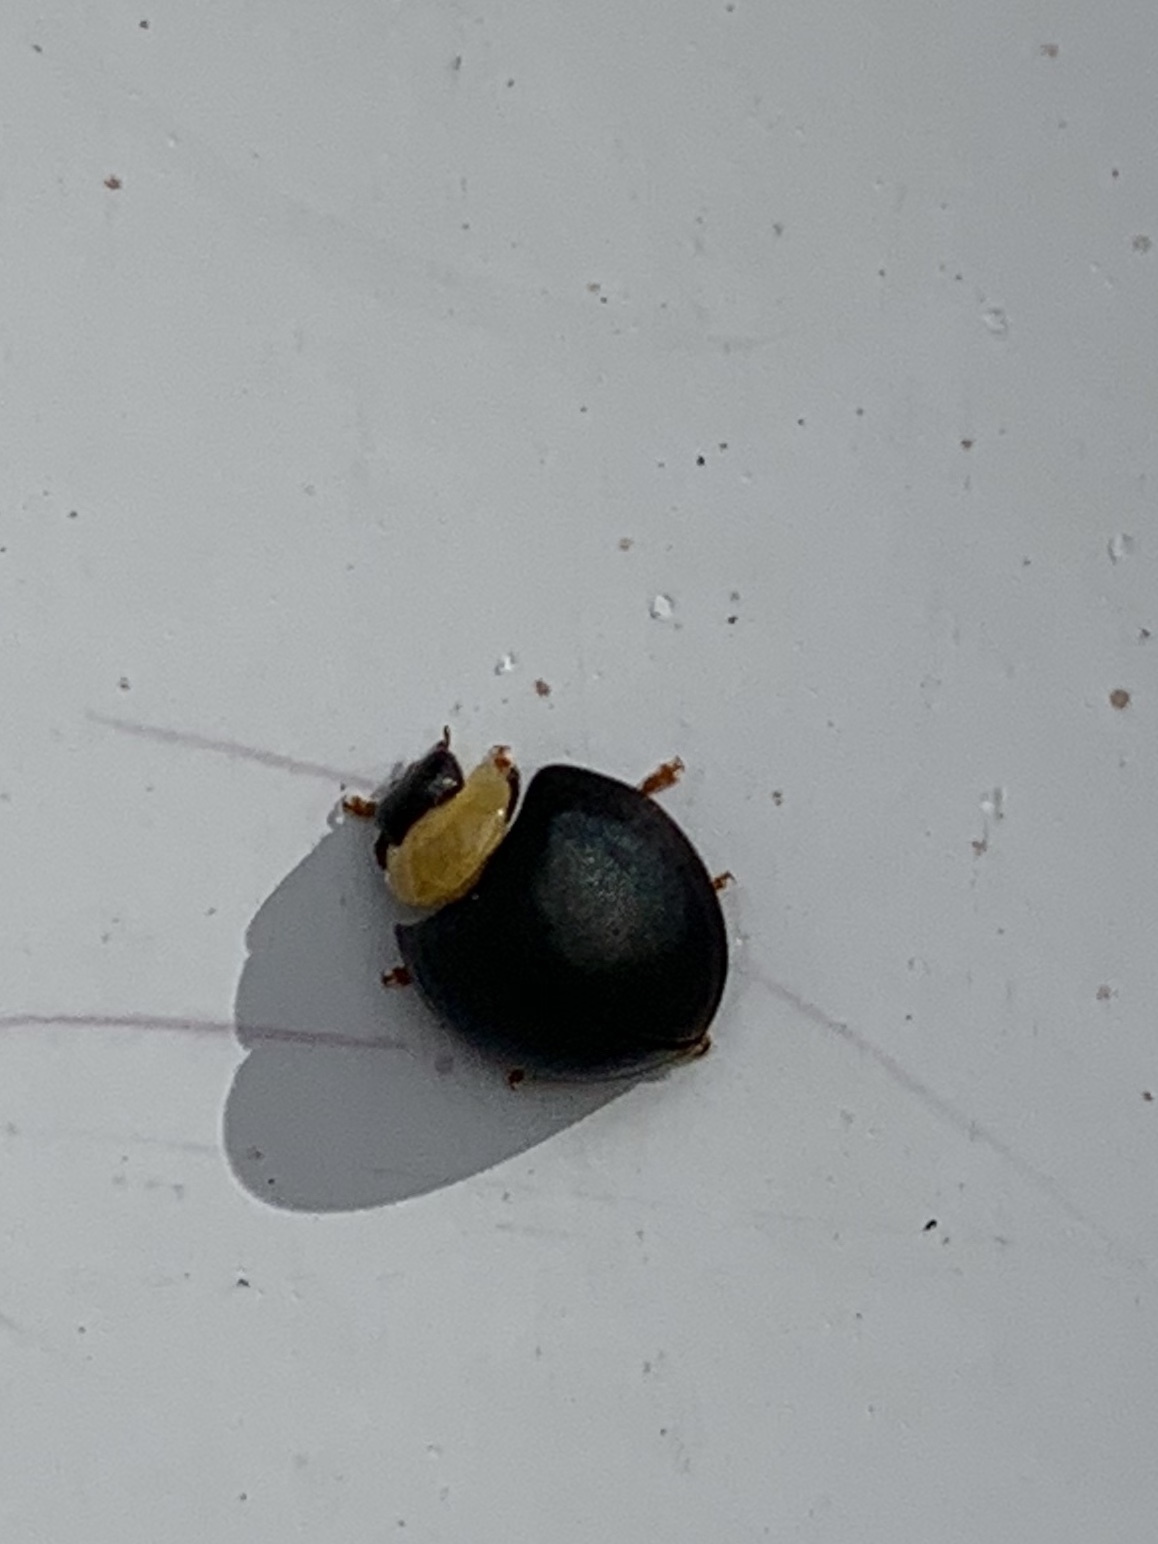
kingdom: Animalia
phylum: Arthropoda
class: Insecta
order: Coleoptera
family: Coccinellidae
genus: Egius
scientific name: Egius platycephalus
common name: Ladybird beetle
